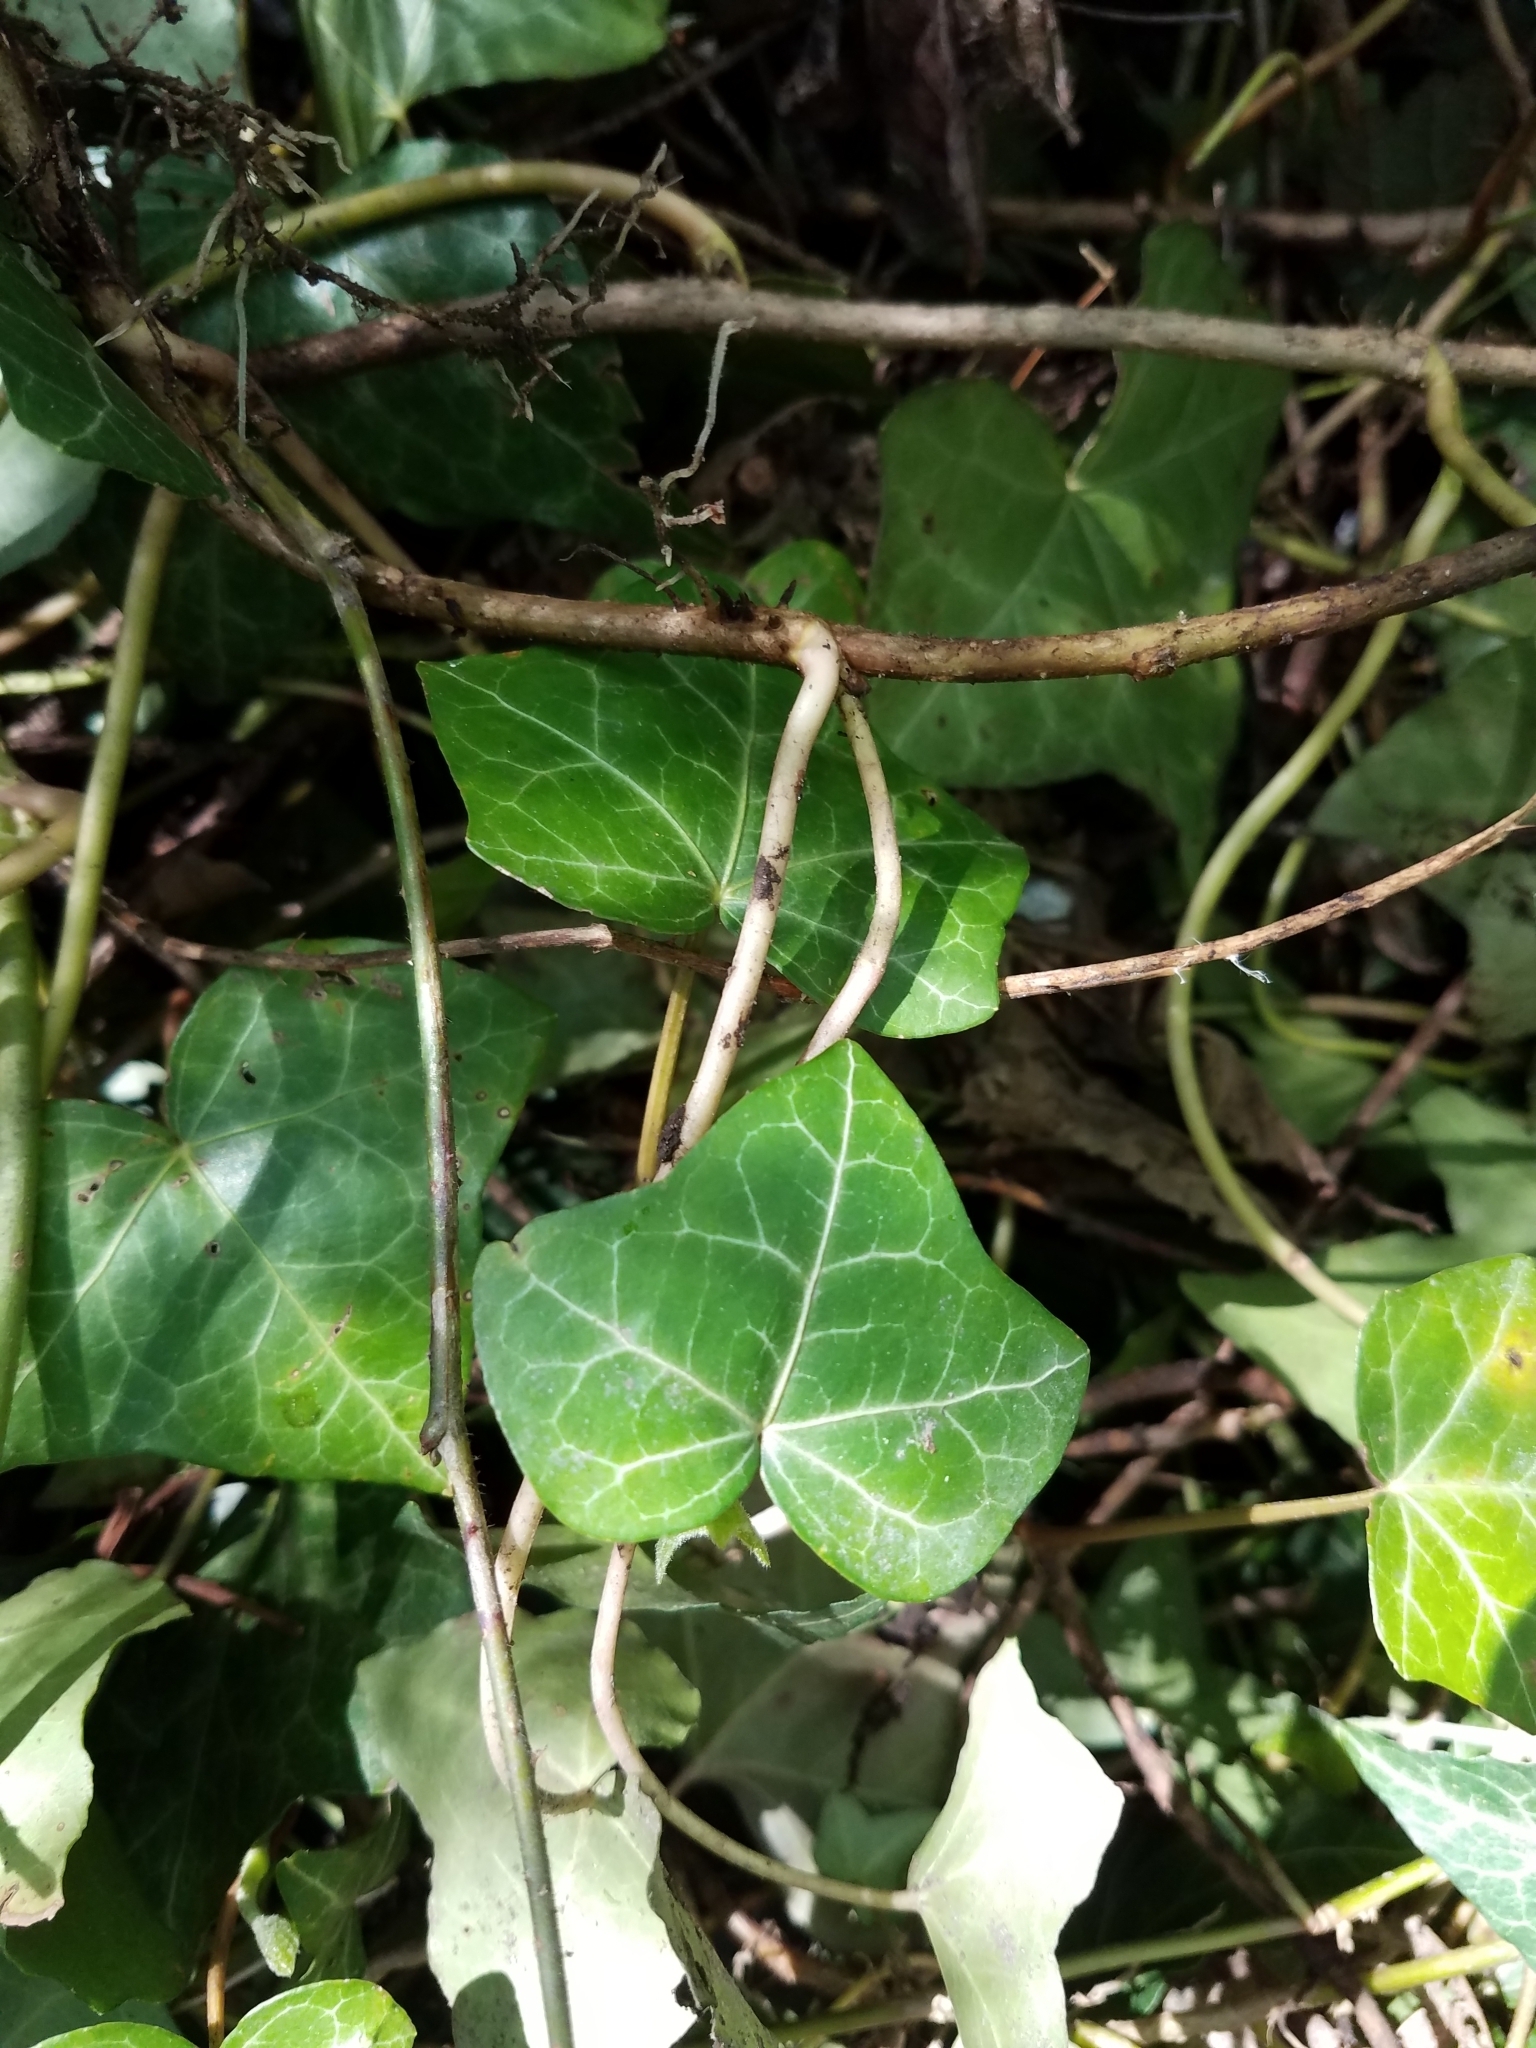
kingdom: Plantae
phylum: Tracheophyta
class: Magnoliopsida
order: Apiales
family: Araliaceae
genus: Hedera
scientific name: Hedera helix
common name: Ivy
